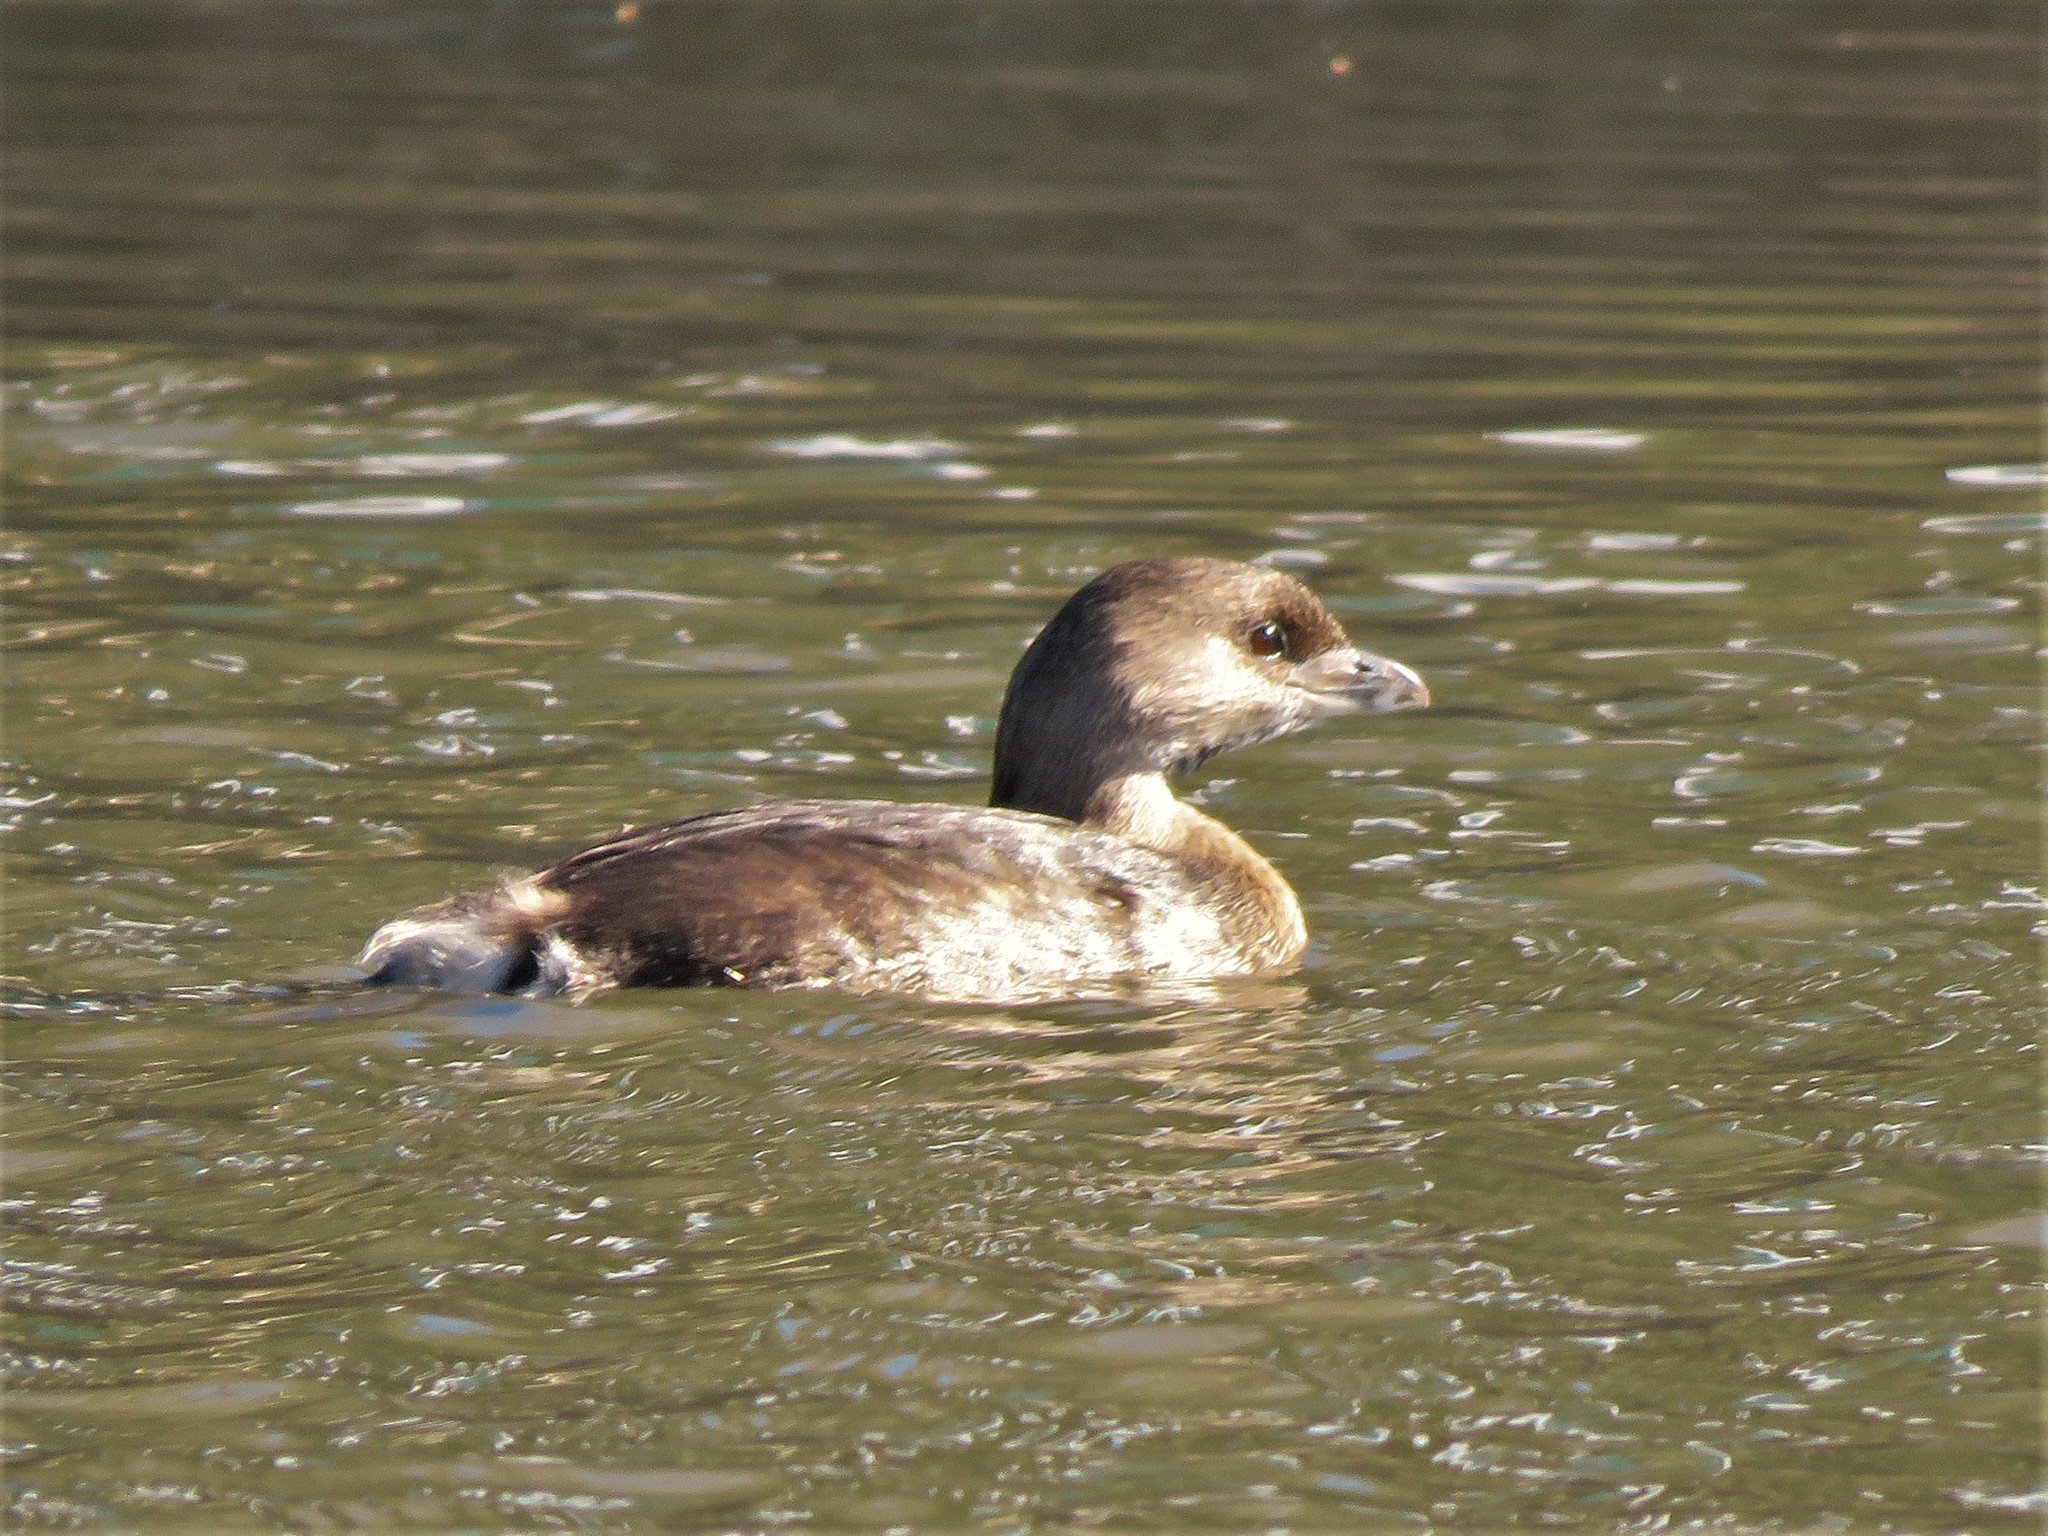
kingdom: Animalia
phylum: Chordata
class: Aves
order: Podicipediformes
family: Podicipedidae
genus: Podilymbus
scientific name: Podilymbus podiceps
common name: Pied-billed grebe
